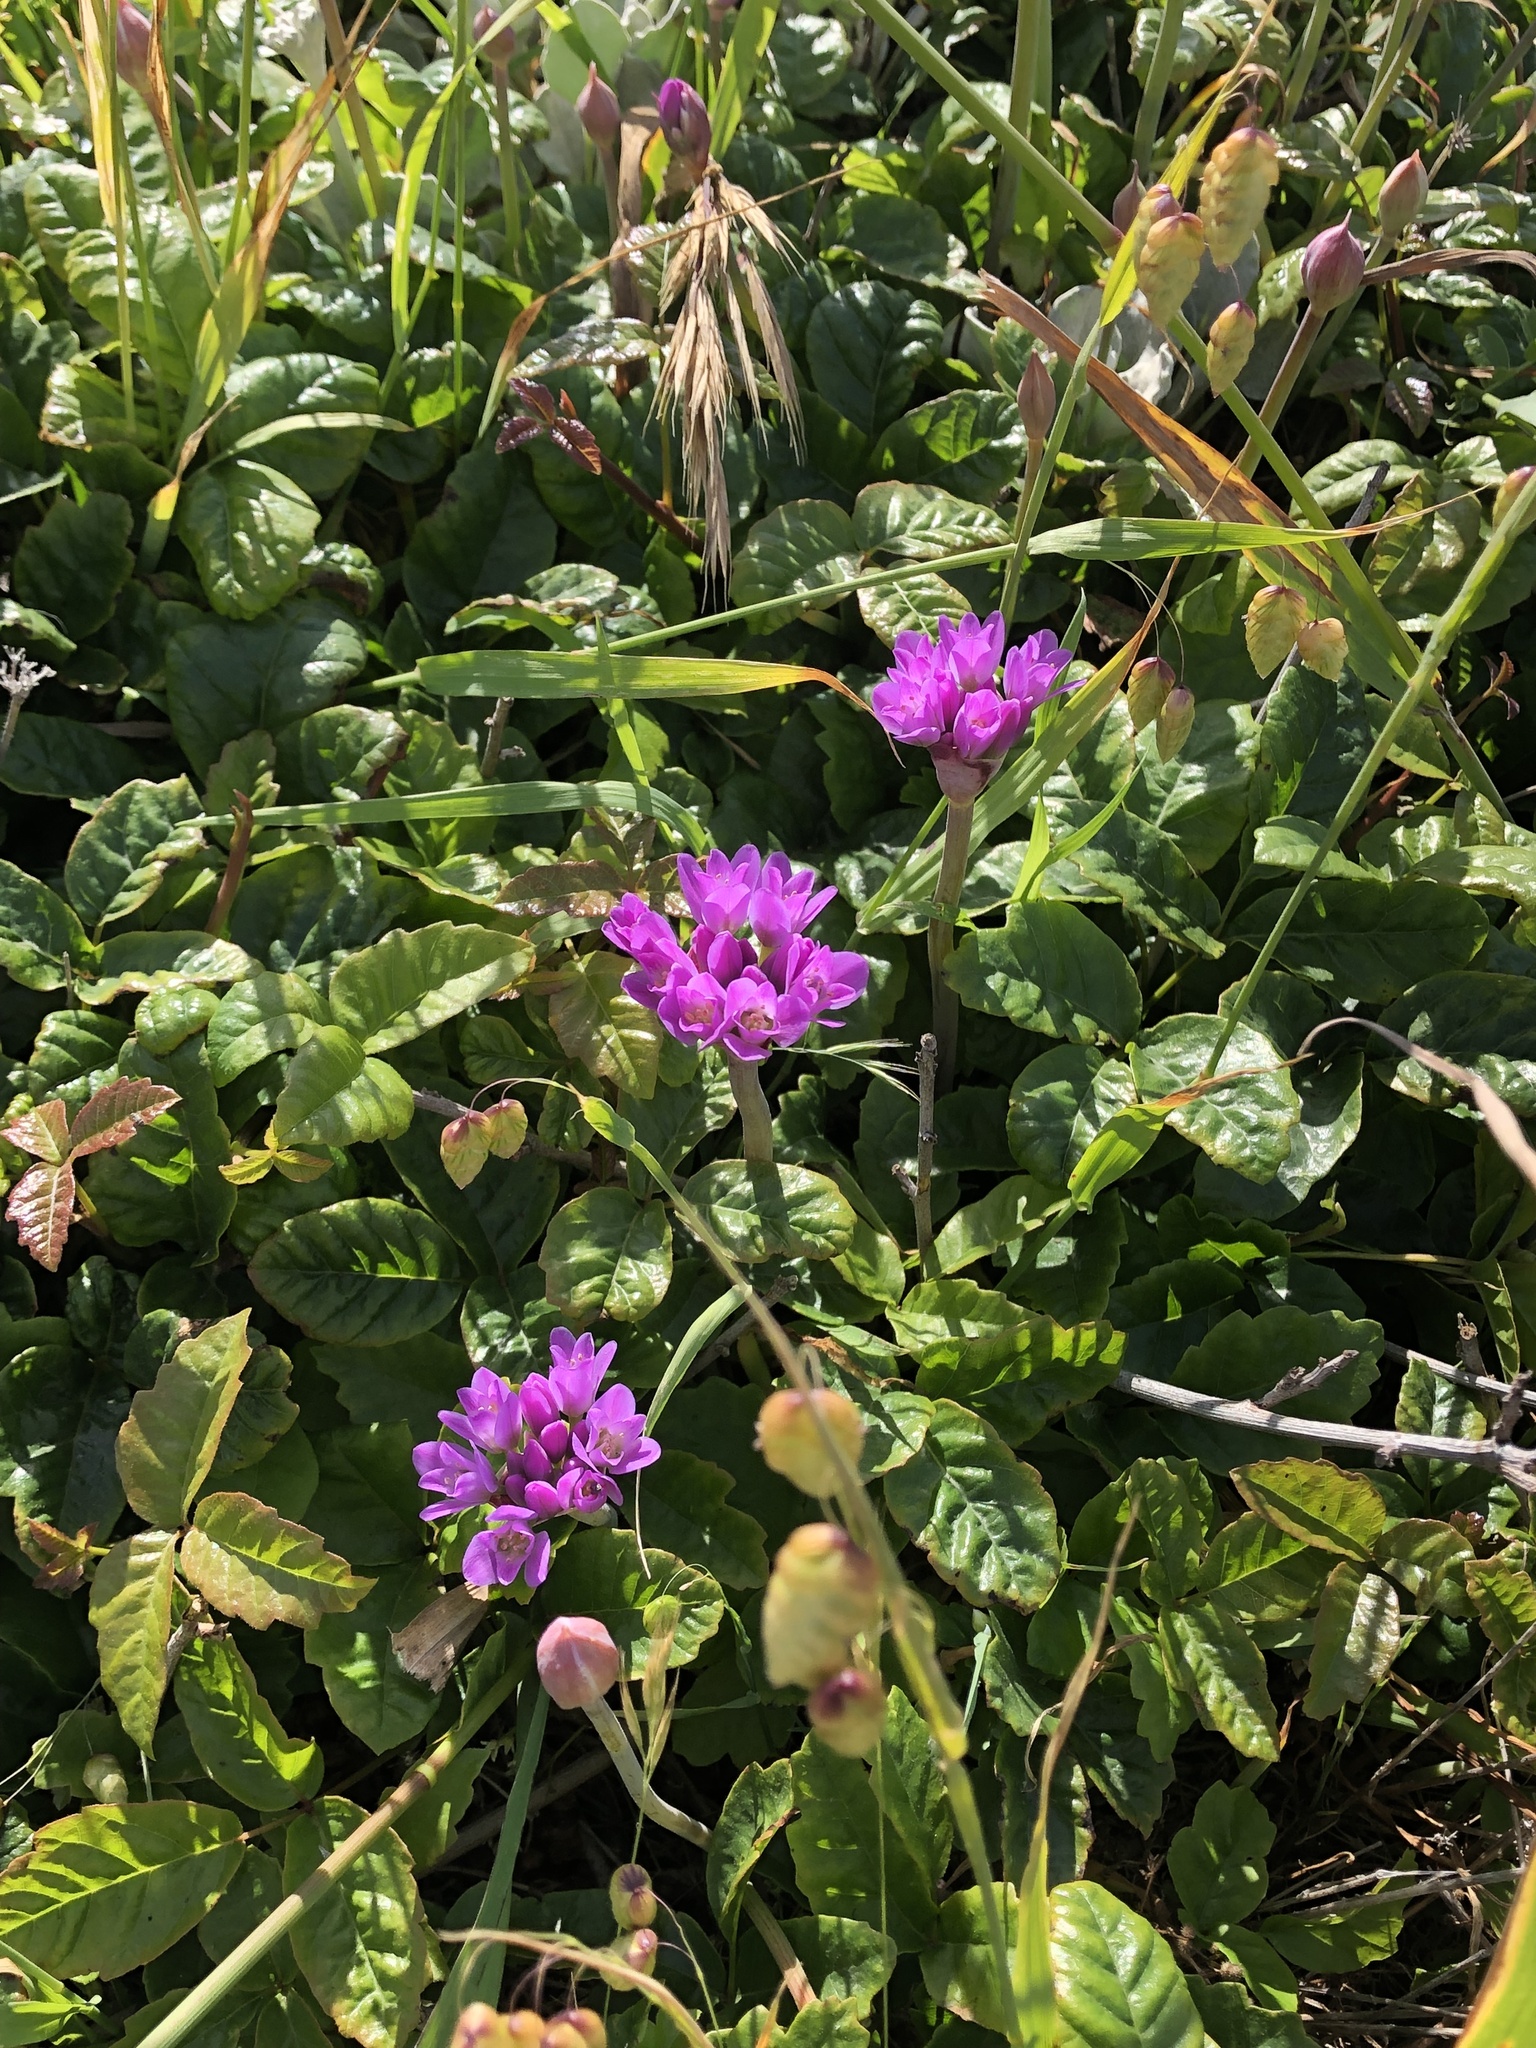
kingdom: Plantae
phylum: Tracheophyta
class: Liliopsida
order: Asparagales
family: Amaryllidaceae
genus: Allium
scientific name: Allium dichlamydeum
